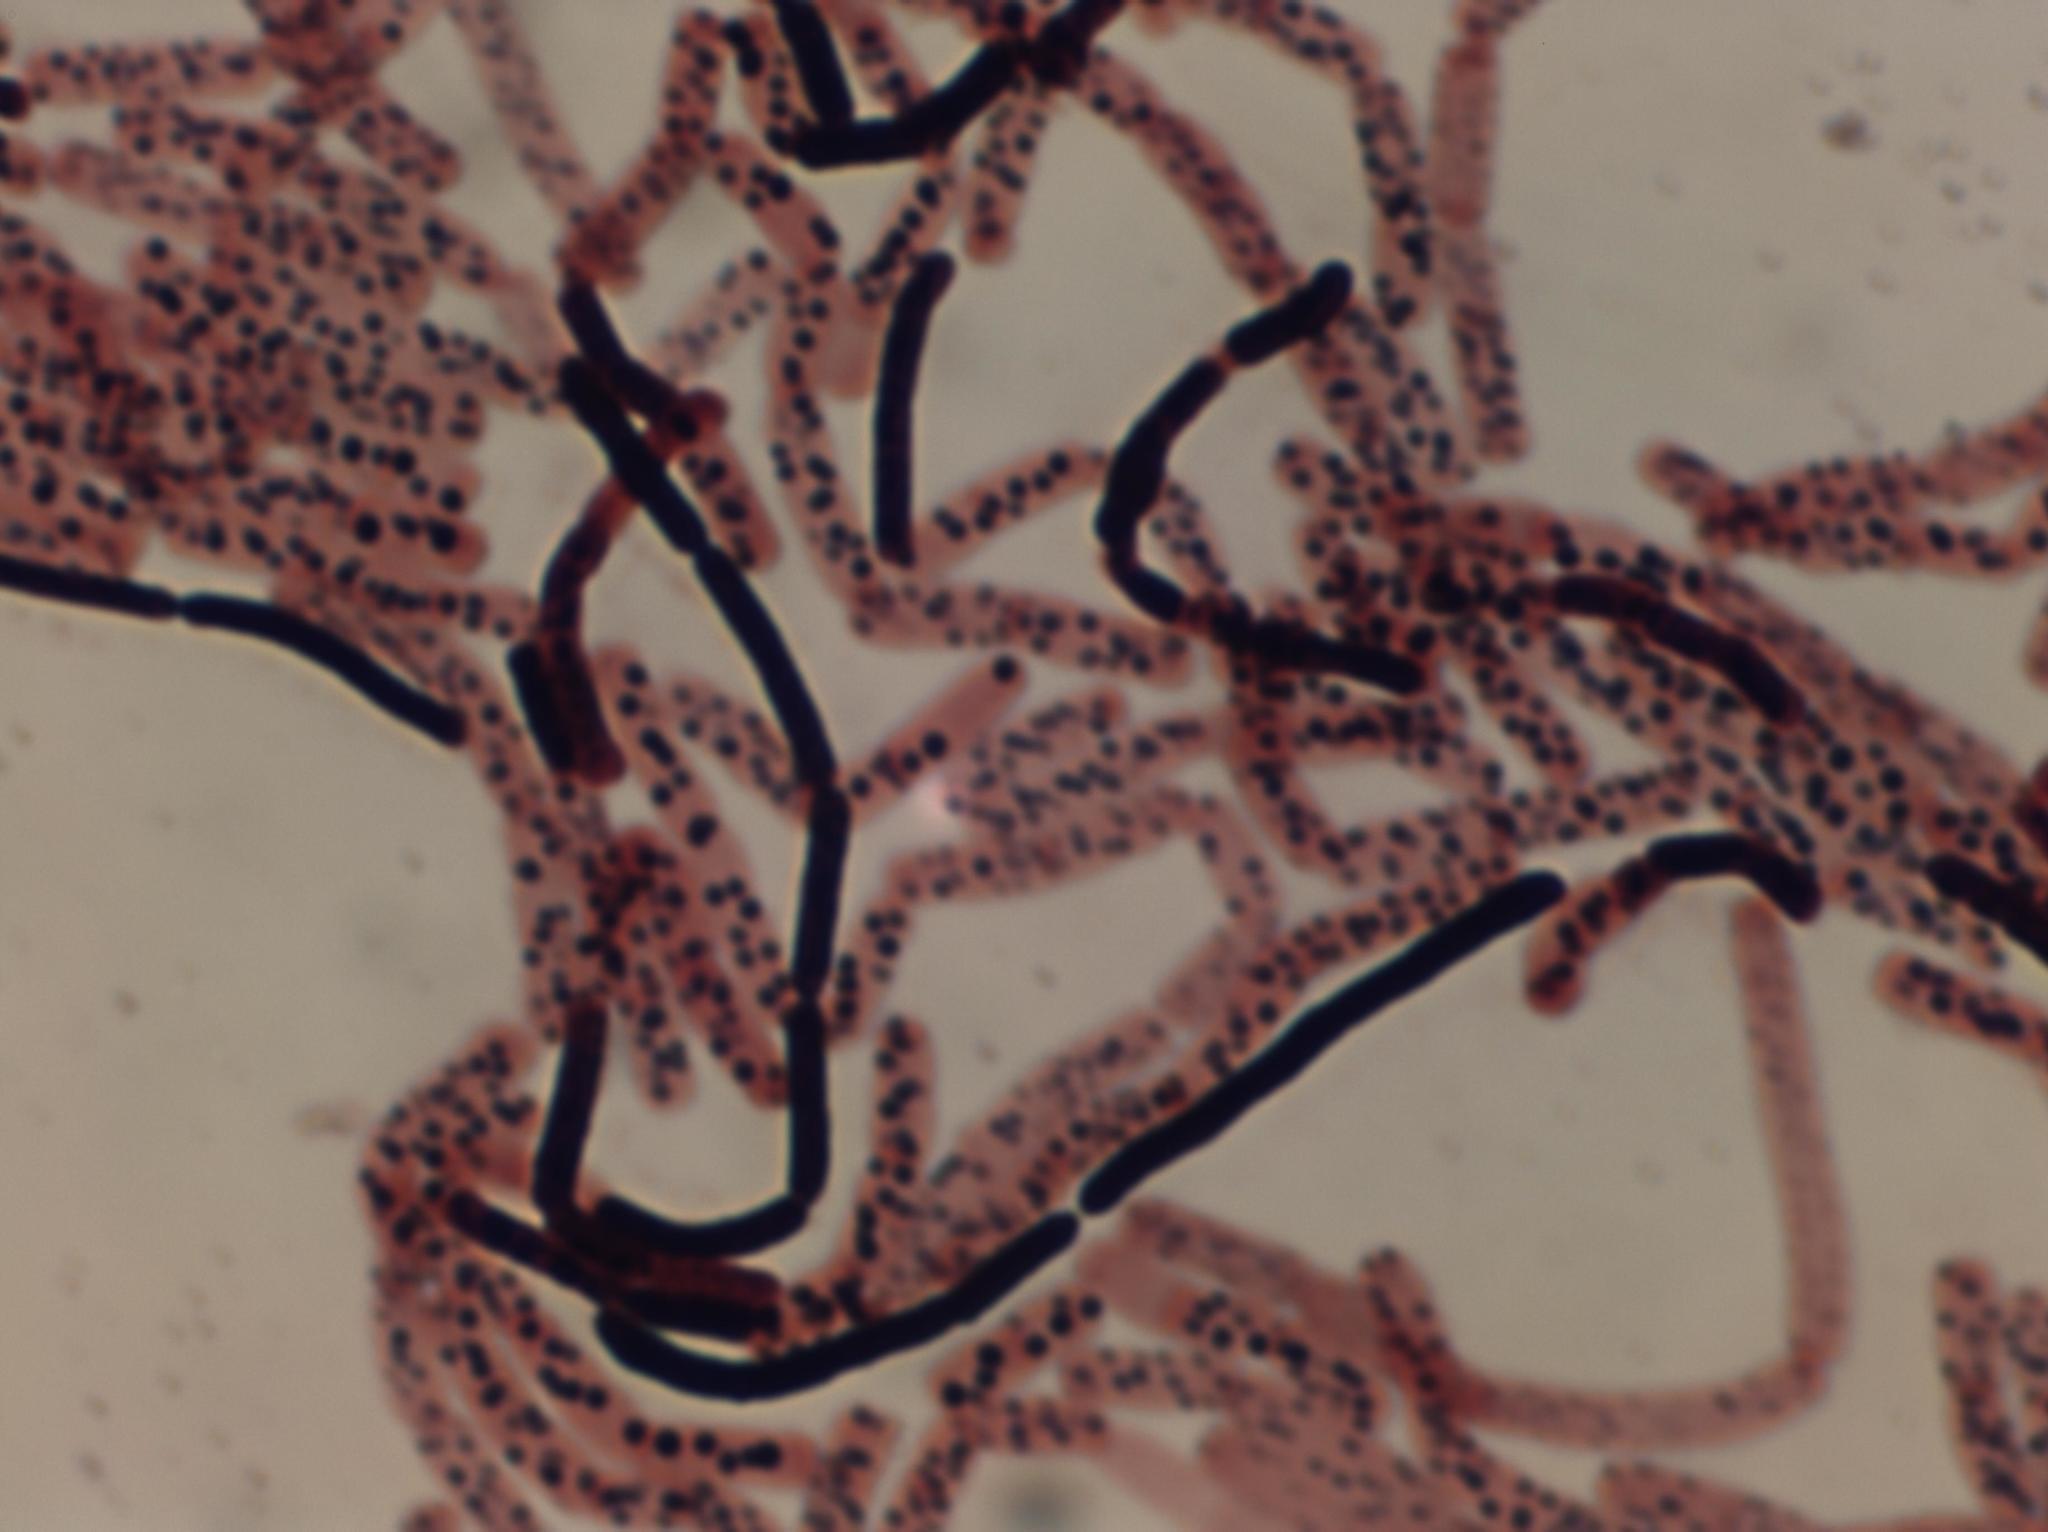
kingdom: Bacteria
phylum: Firmicutes
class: Bacilli
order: Bacillales
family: Bacillaceae
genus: Bacillus
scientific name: Bacillus simplex
